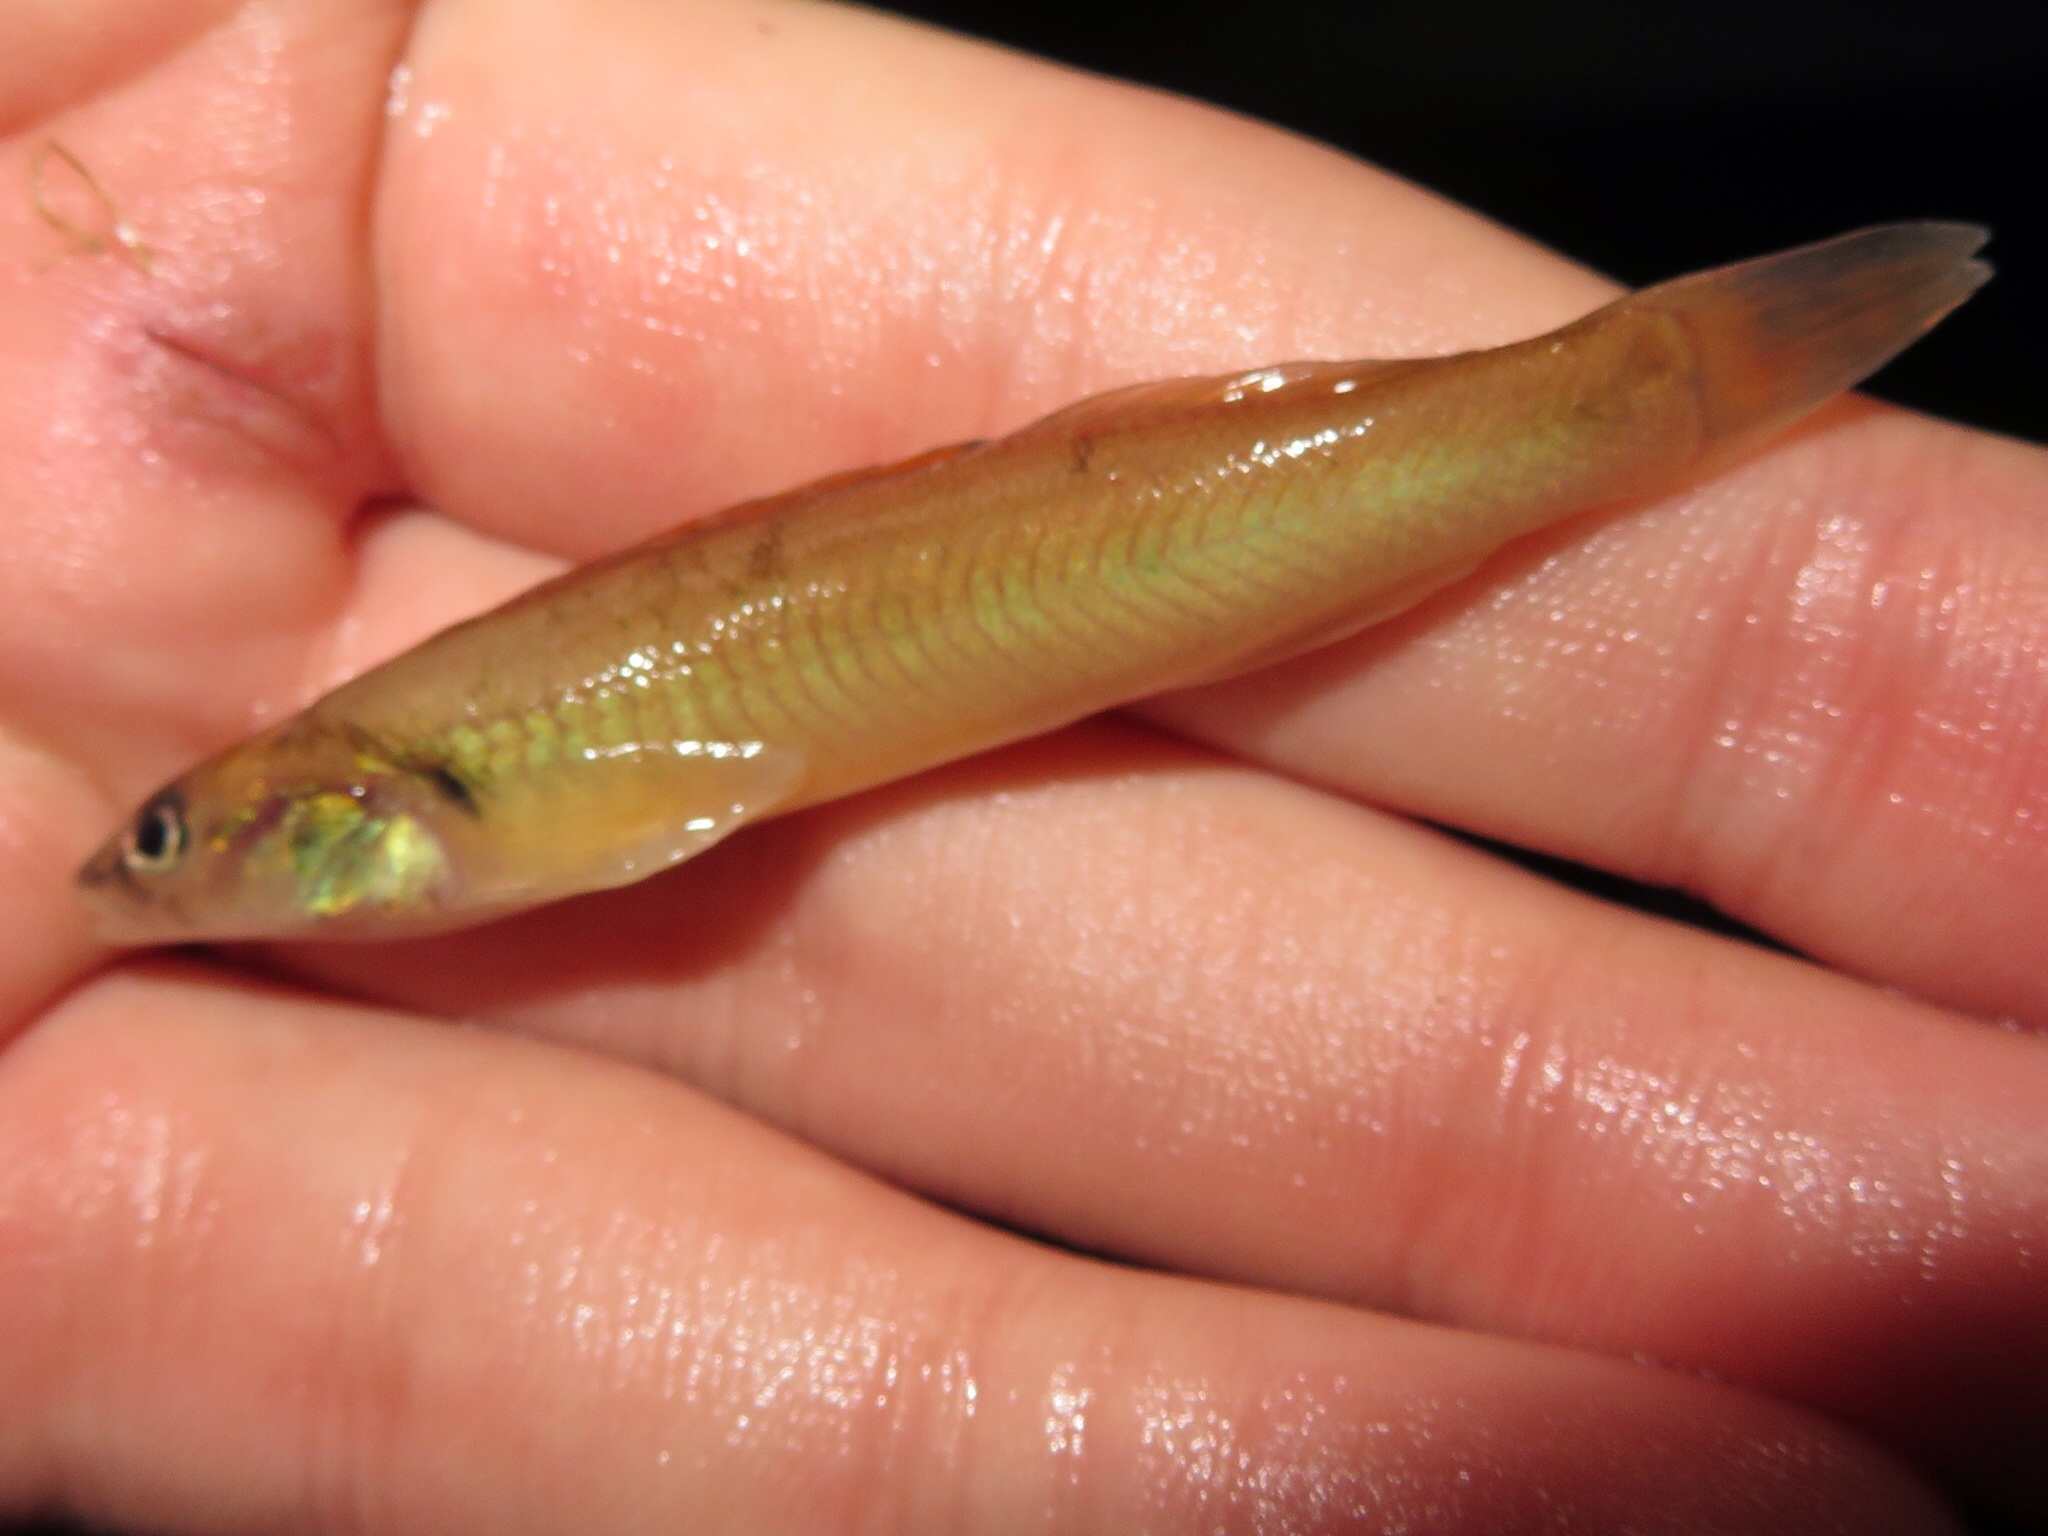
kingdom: Animalia
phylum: Chordata
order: Perciformes
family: Percidae
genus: Percina
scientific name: Percina phoxocephala
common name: Slenderhead darter
